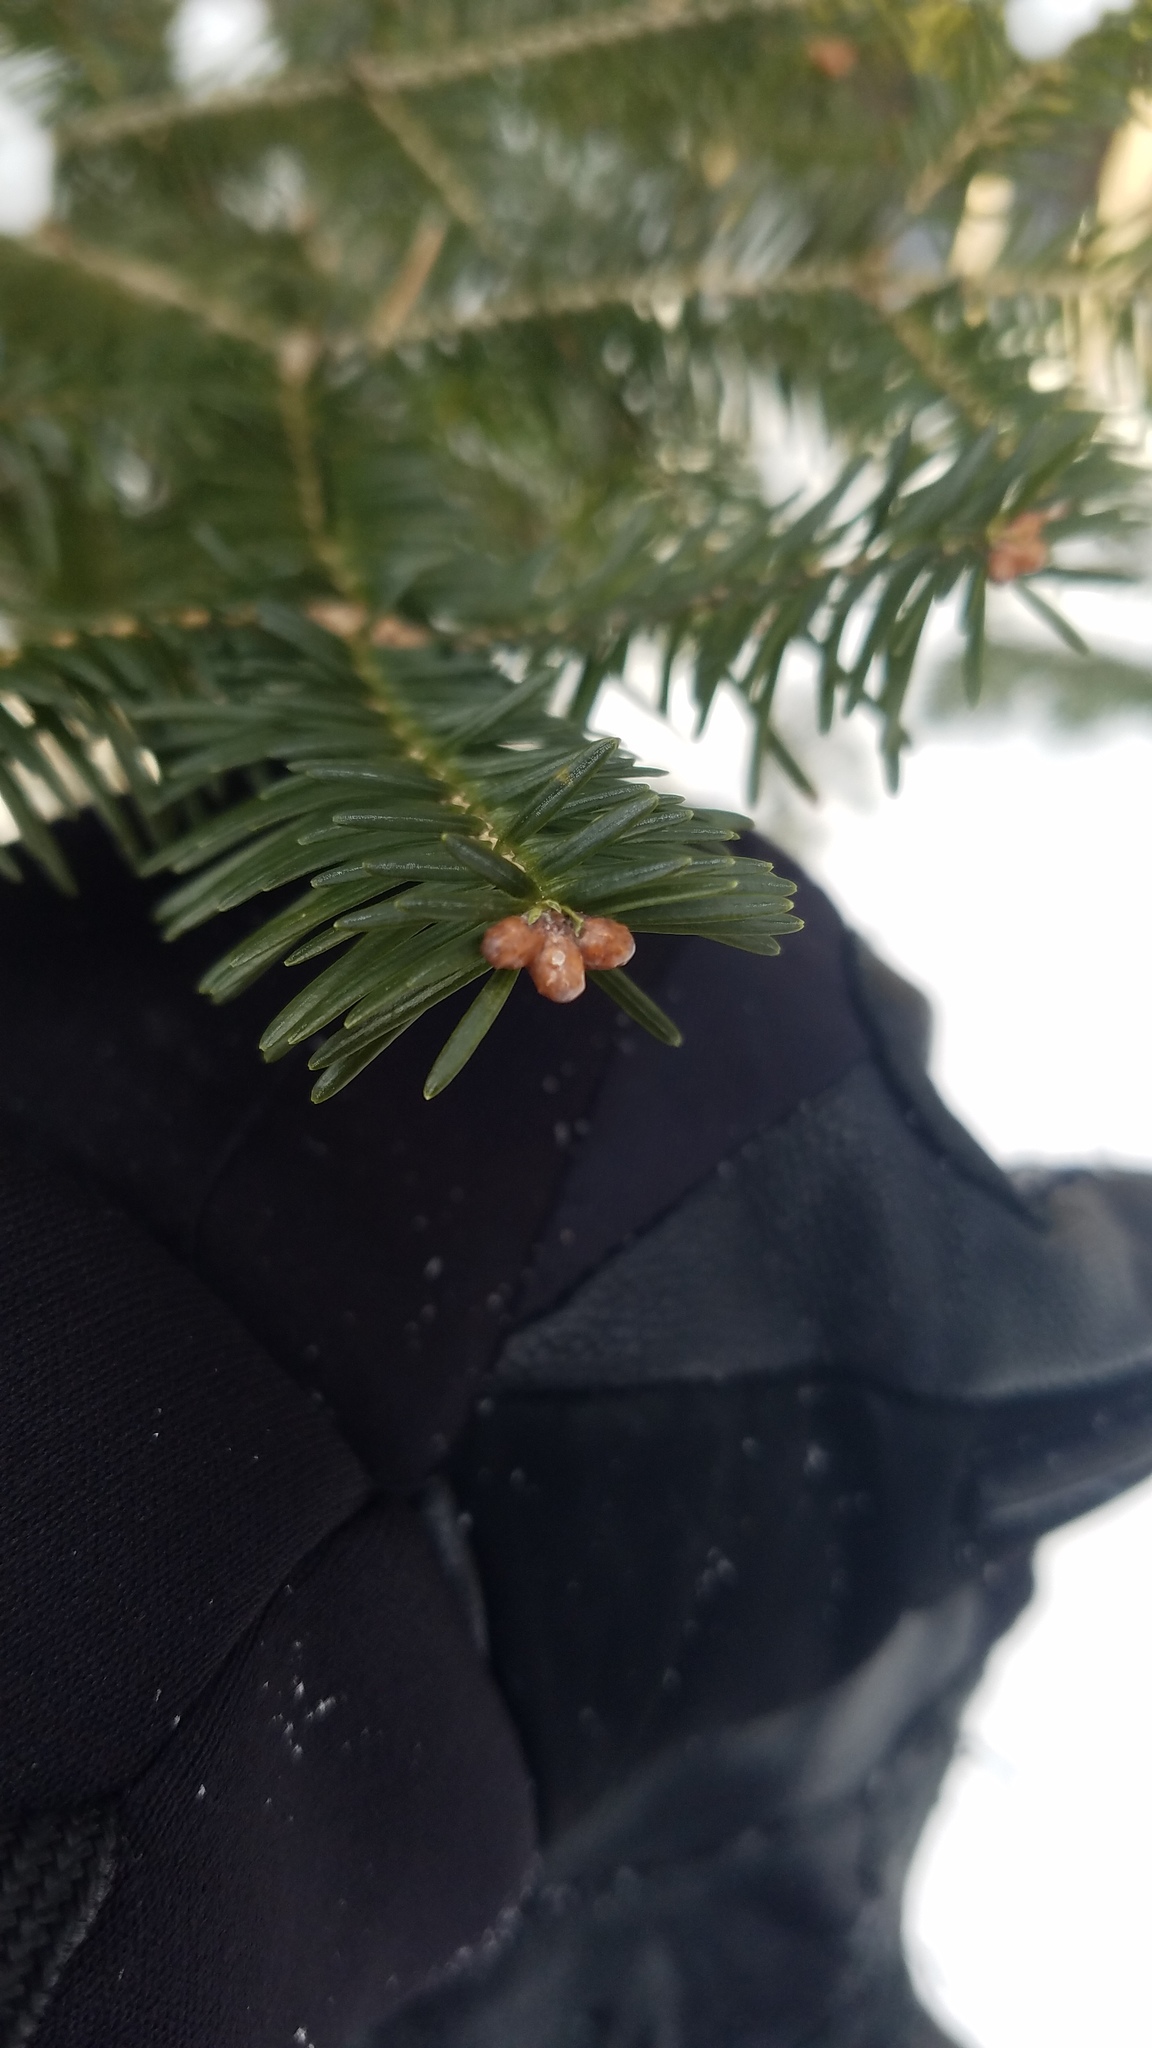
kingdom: Plantae
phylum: Tracheophyta
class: Pinopsida
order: Pinales
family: Pinaceae
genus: Abies
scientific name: Abies balsamea
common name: Balsam fir
